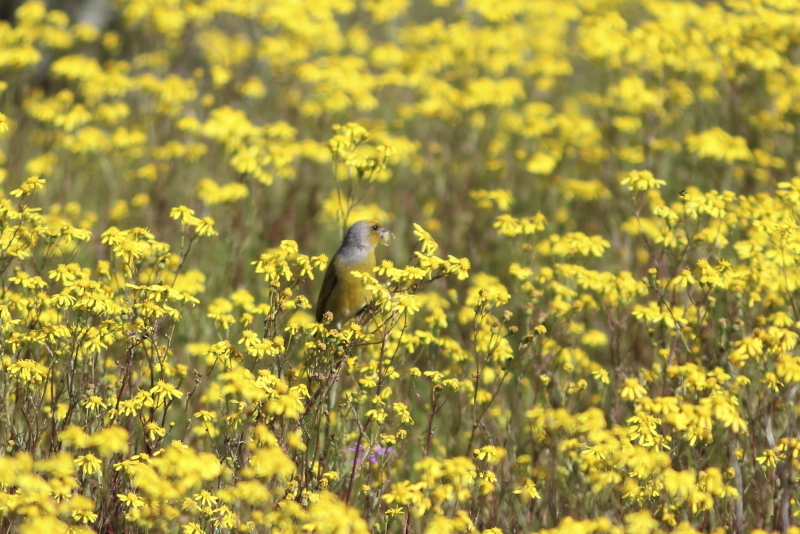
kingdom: Animalia
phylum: Chordata
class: Aves
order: Passeriformes
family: Fringillidae
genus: Serinus
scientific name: Serinus canicollis
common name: Cape canary
